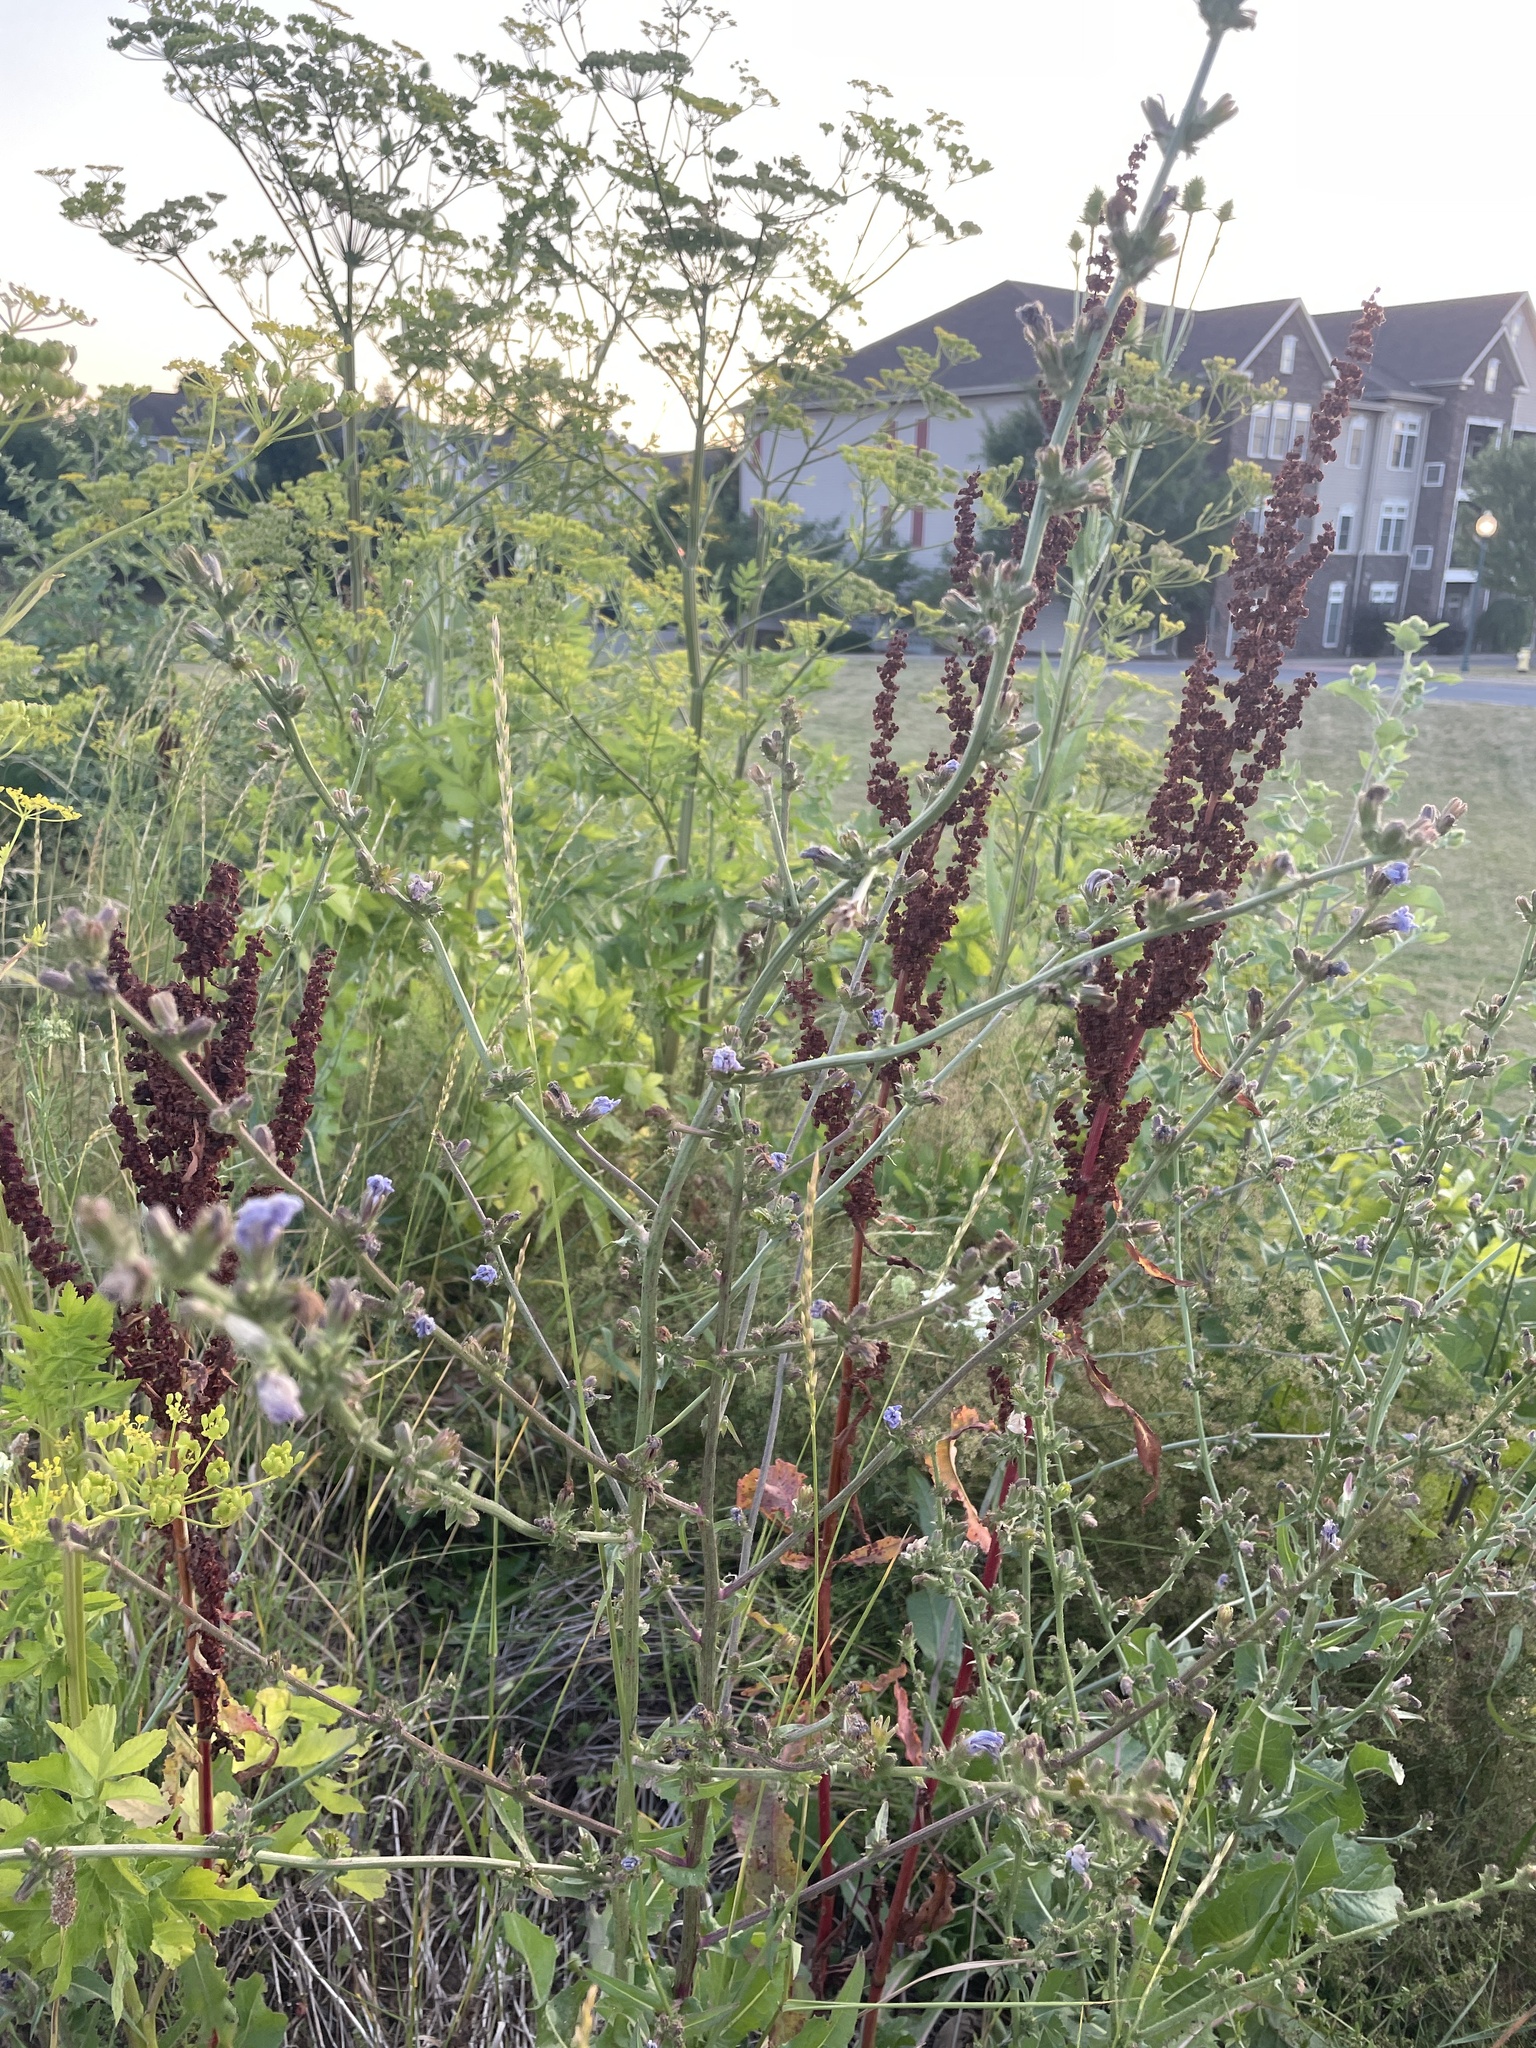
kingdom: Plantae
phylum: Tracheophyta
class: Magnoliopsida
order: Asterales
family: Asteraceae
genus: Cichorium
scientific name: Cichorium intybus
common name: Chicory
